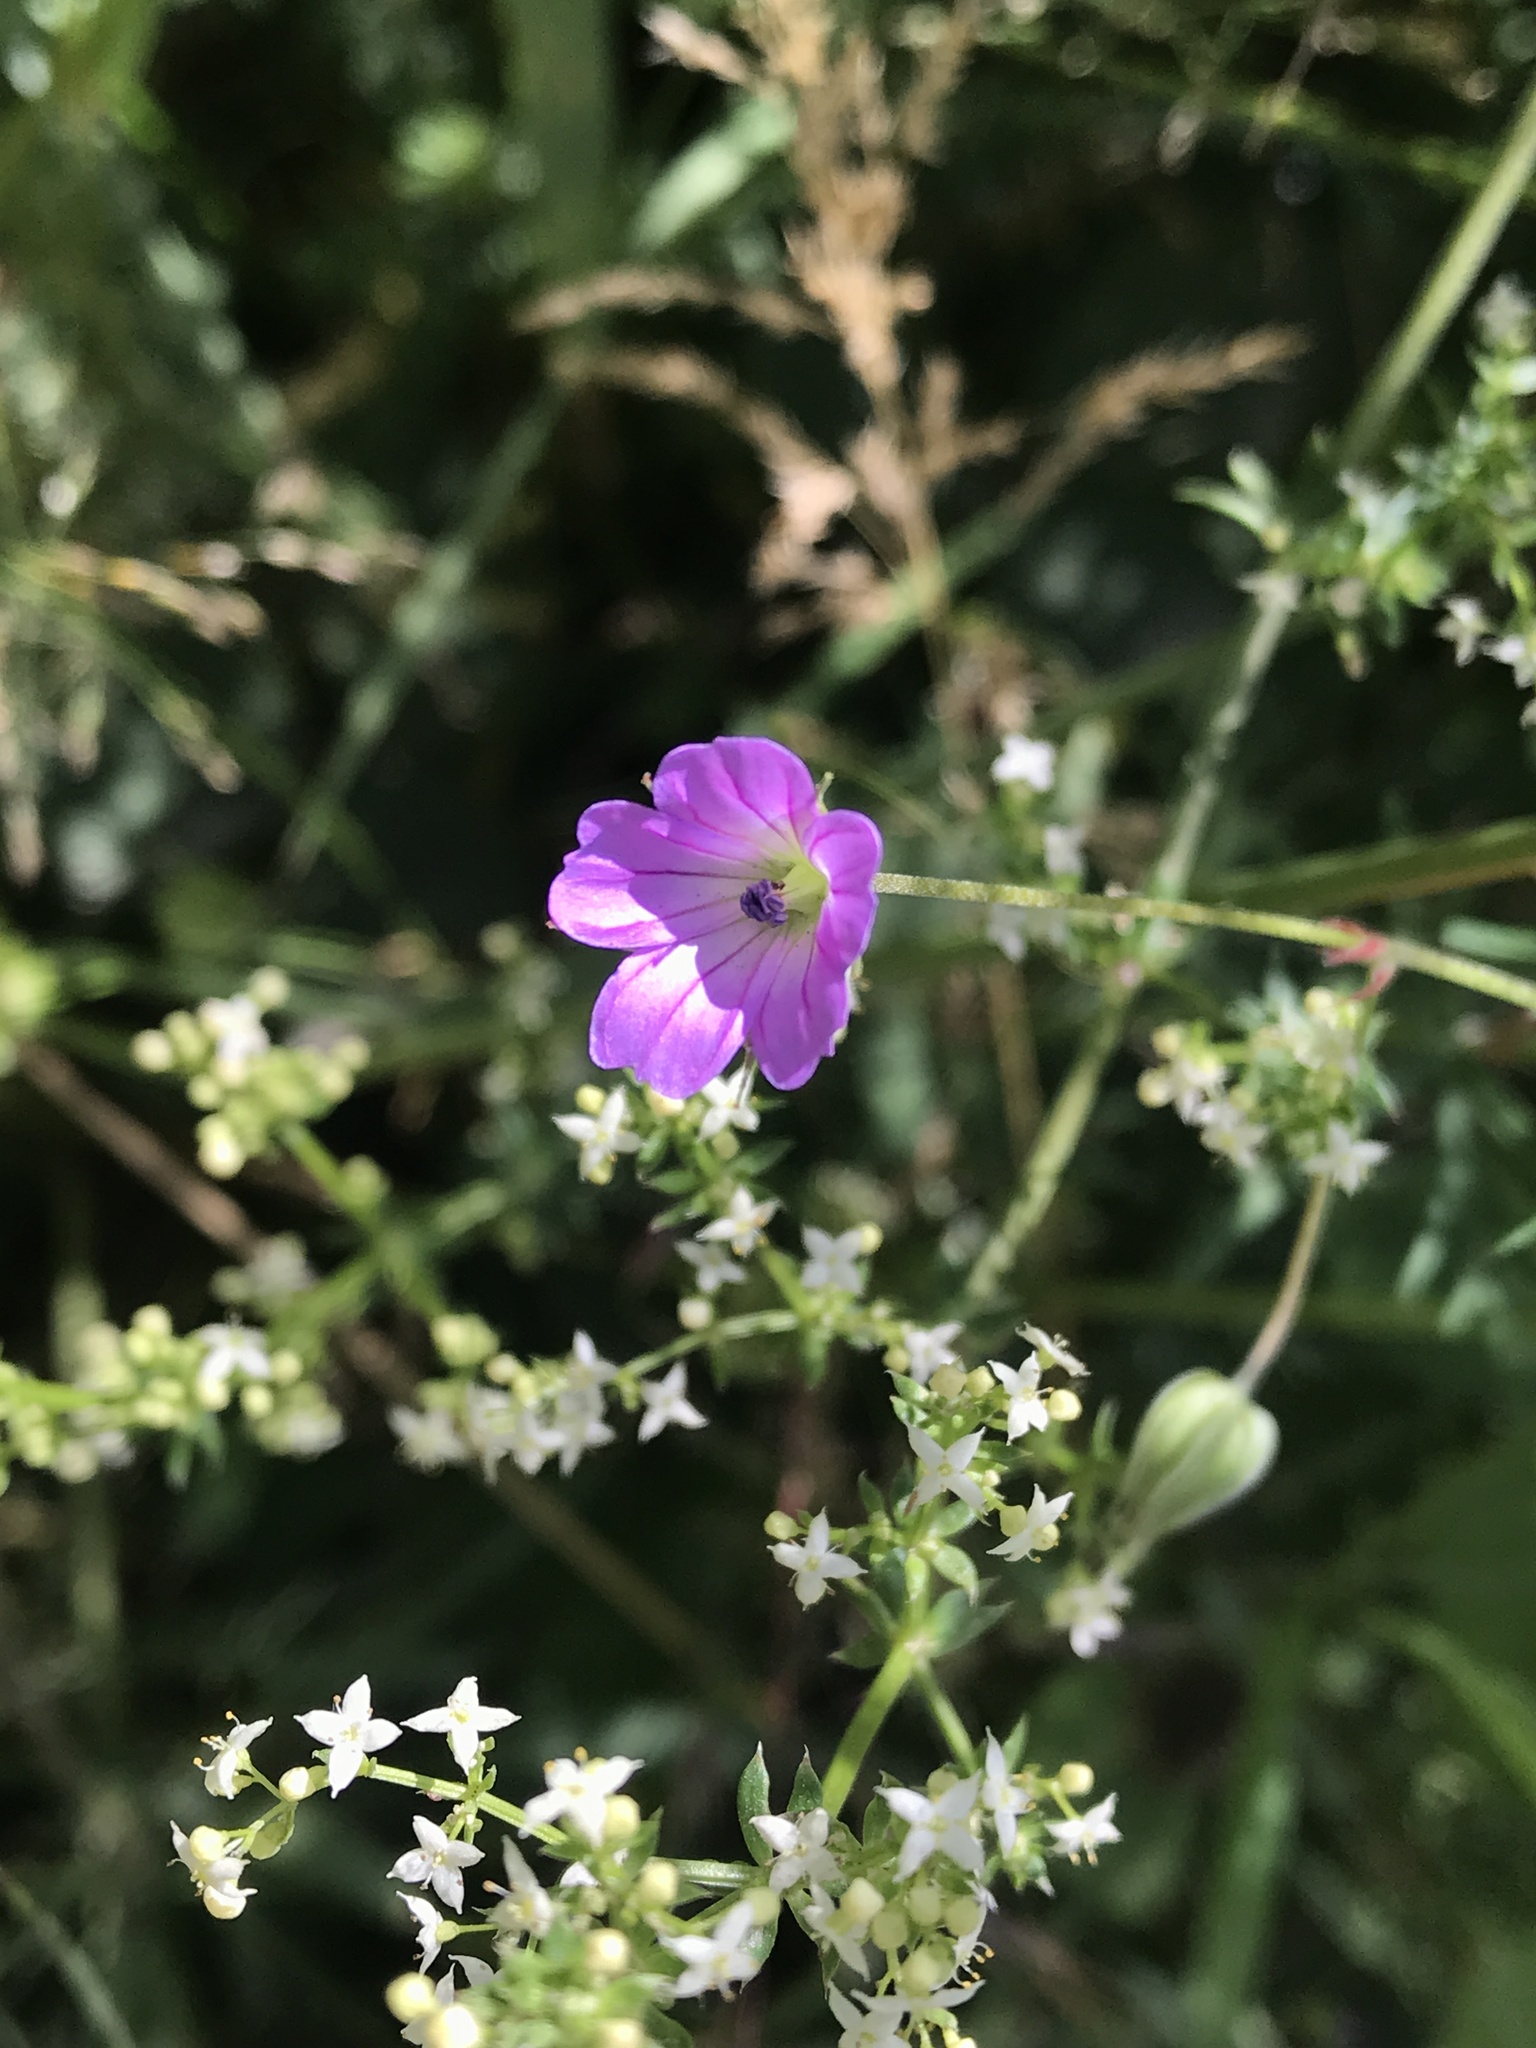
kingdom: Plantae
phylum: Tracheophyta
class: Magnoliopsida
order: Geraniales
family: Geraniaceae
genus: Geranium
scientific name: Geranium columbinum
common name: Long-stalked crane's-bill
